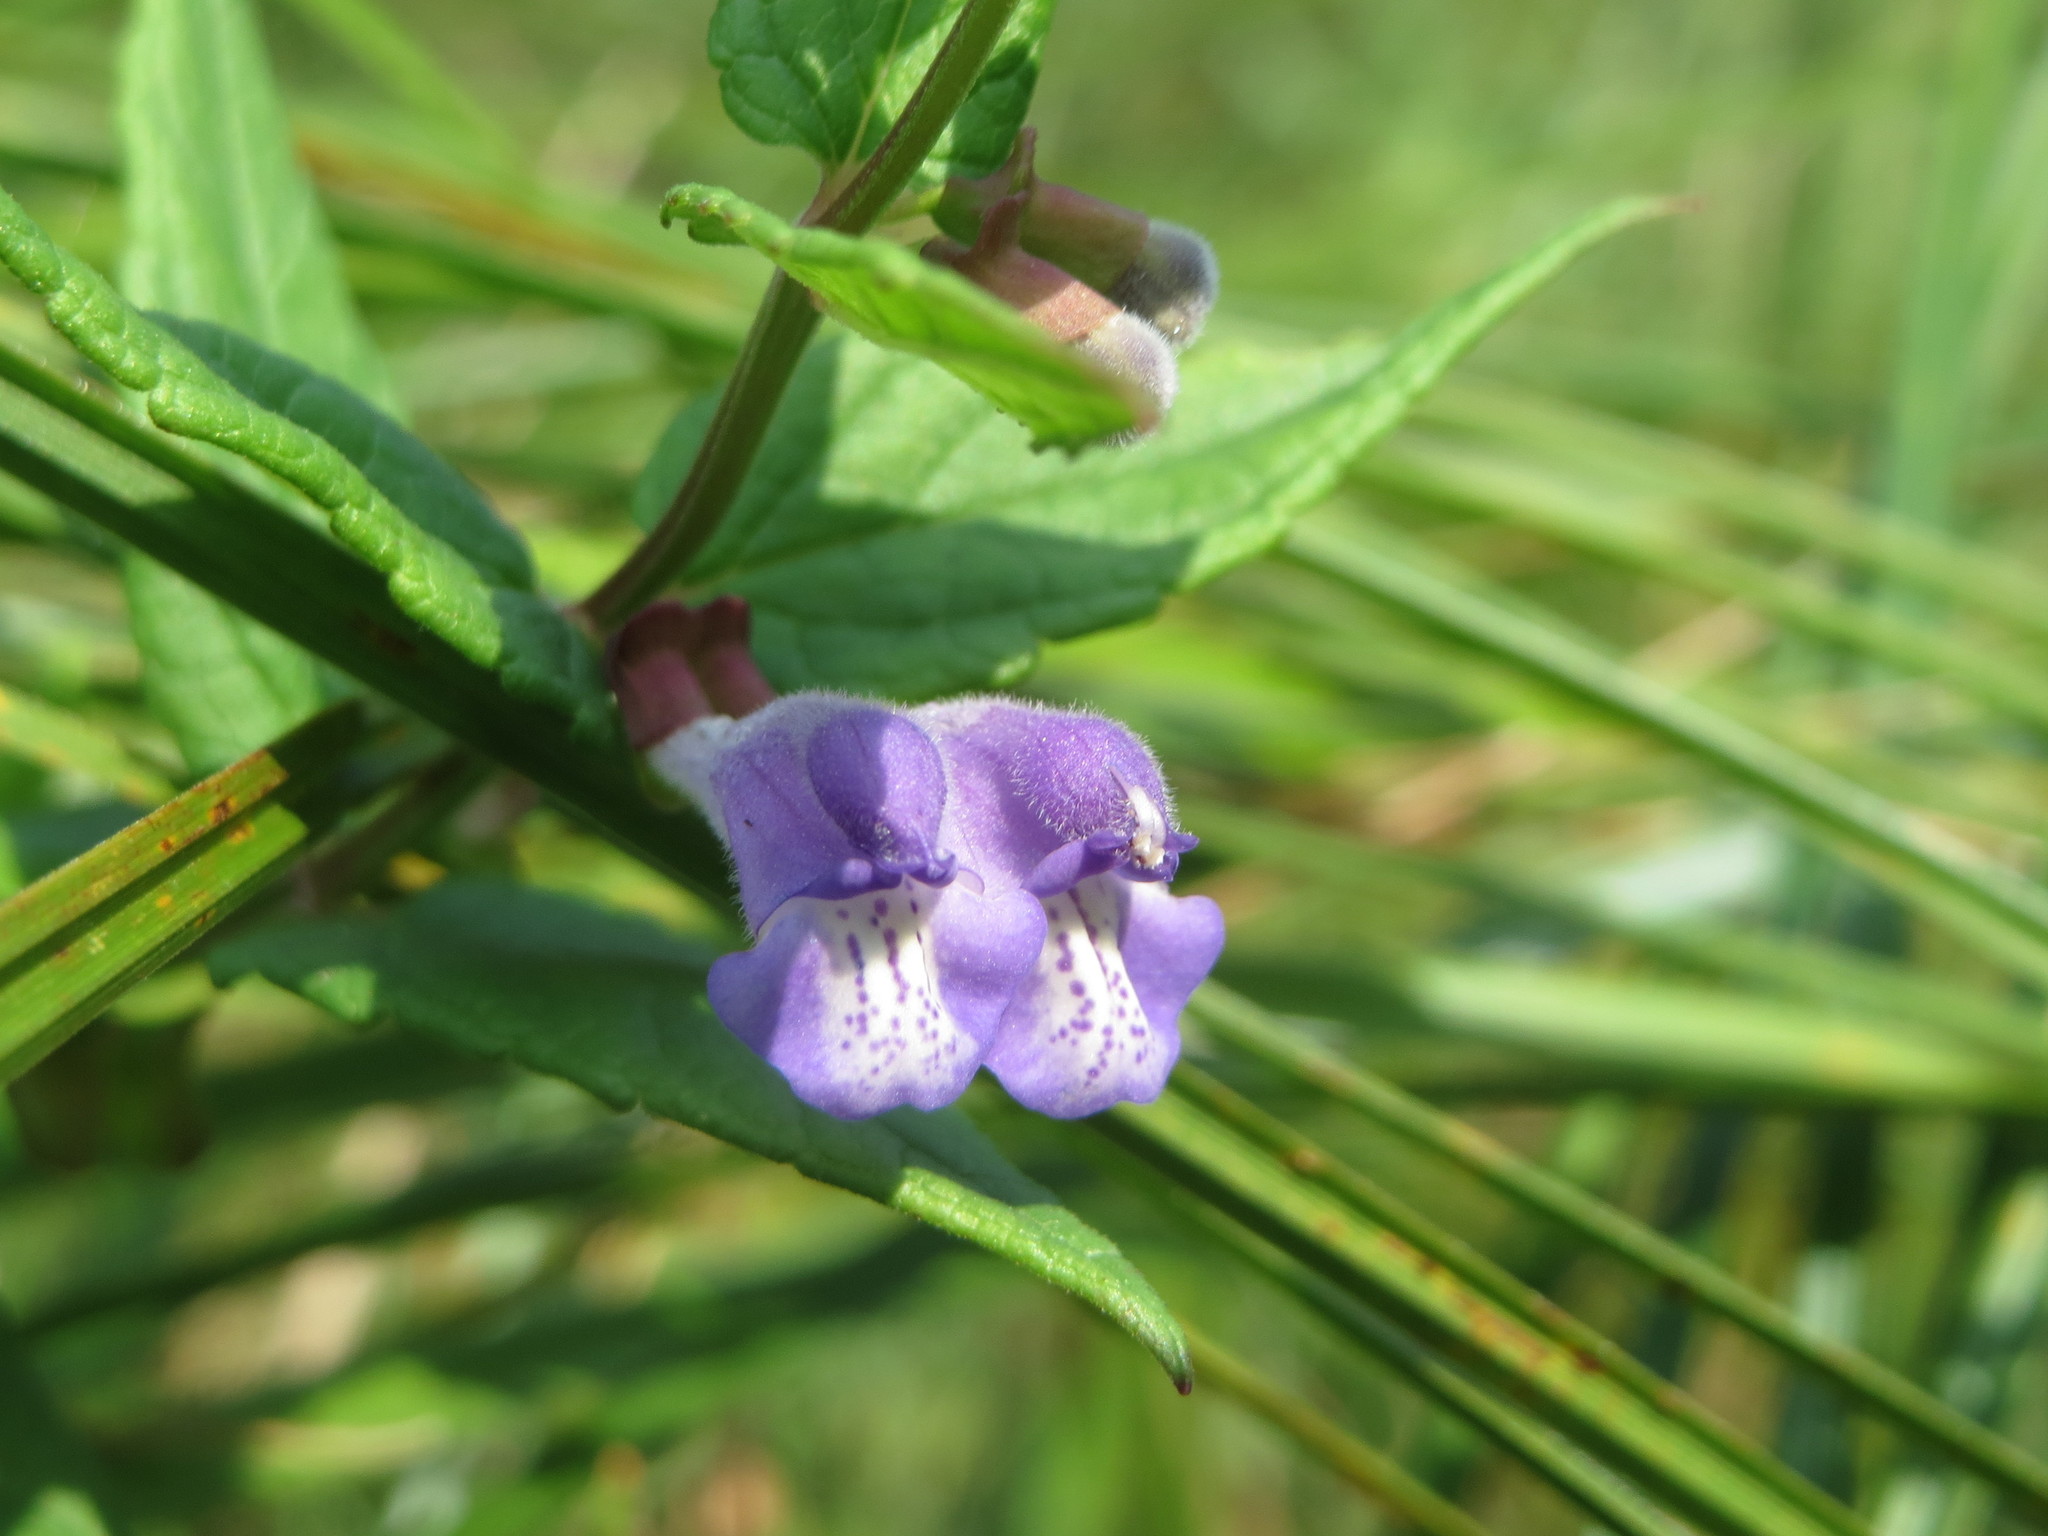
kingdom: Plantae
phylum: Tracheophyta
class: Magnoliopsida
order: Lamiales
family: Lamiaceae
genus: Scutellaria
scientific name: Scutellaria galericulata
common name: Skullcap
